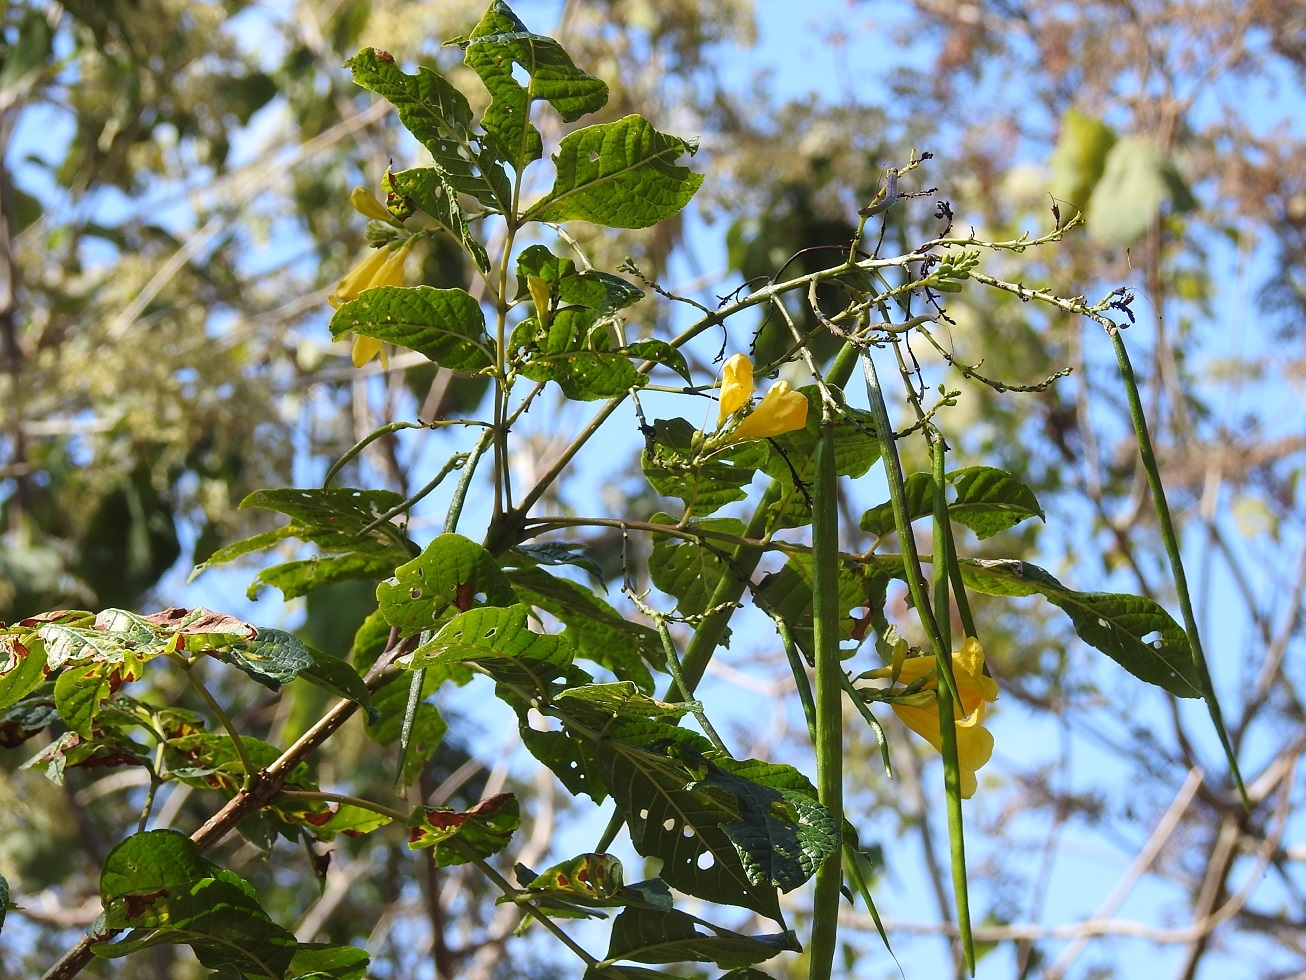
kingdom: Plantae
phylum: Tracheophyta
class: Magnoliopsida
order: Lamiales
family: Bignoniaceae
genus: Tecoma
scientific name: Tecoma stans
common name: Yellow trumpetbush
